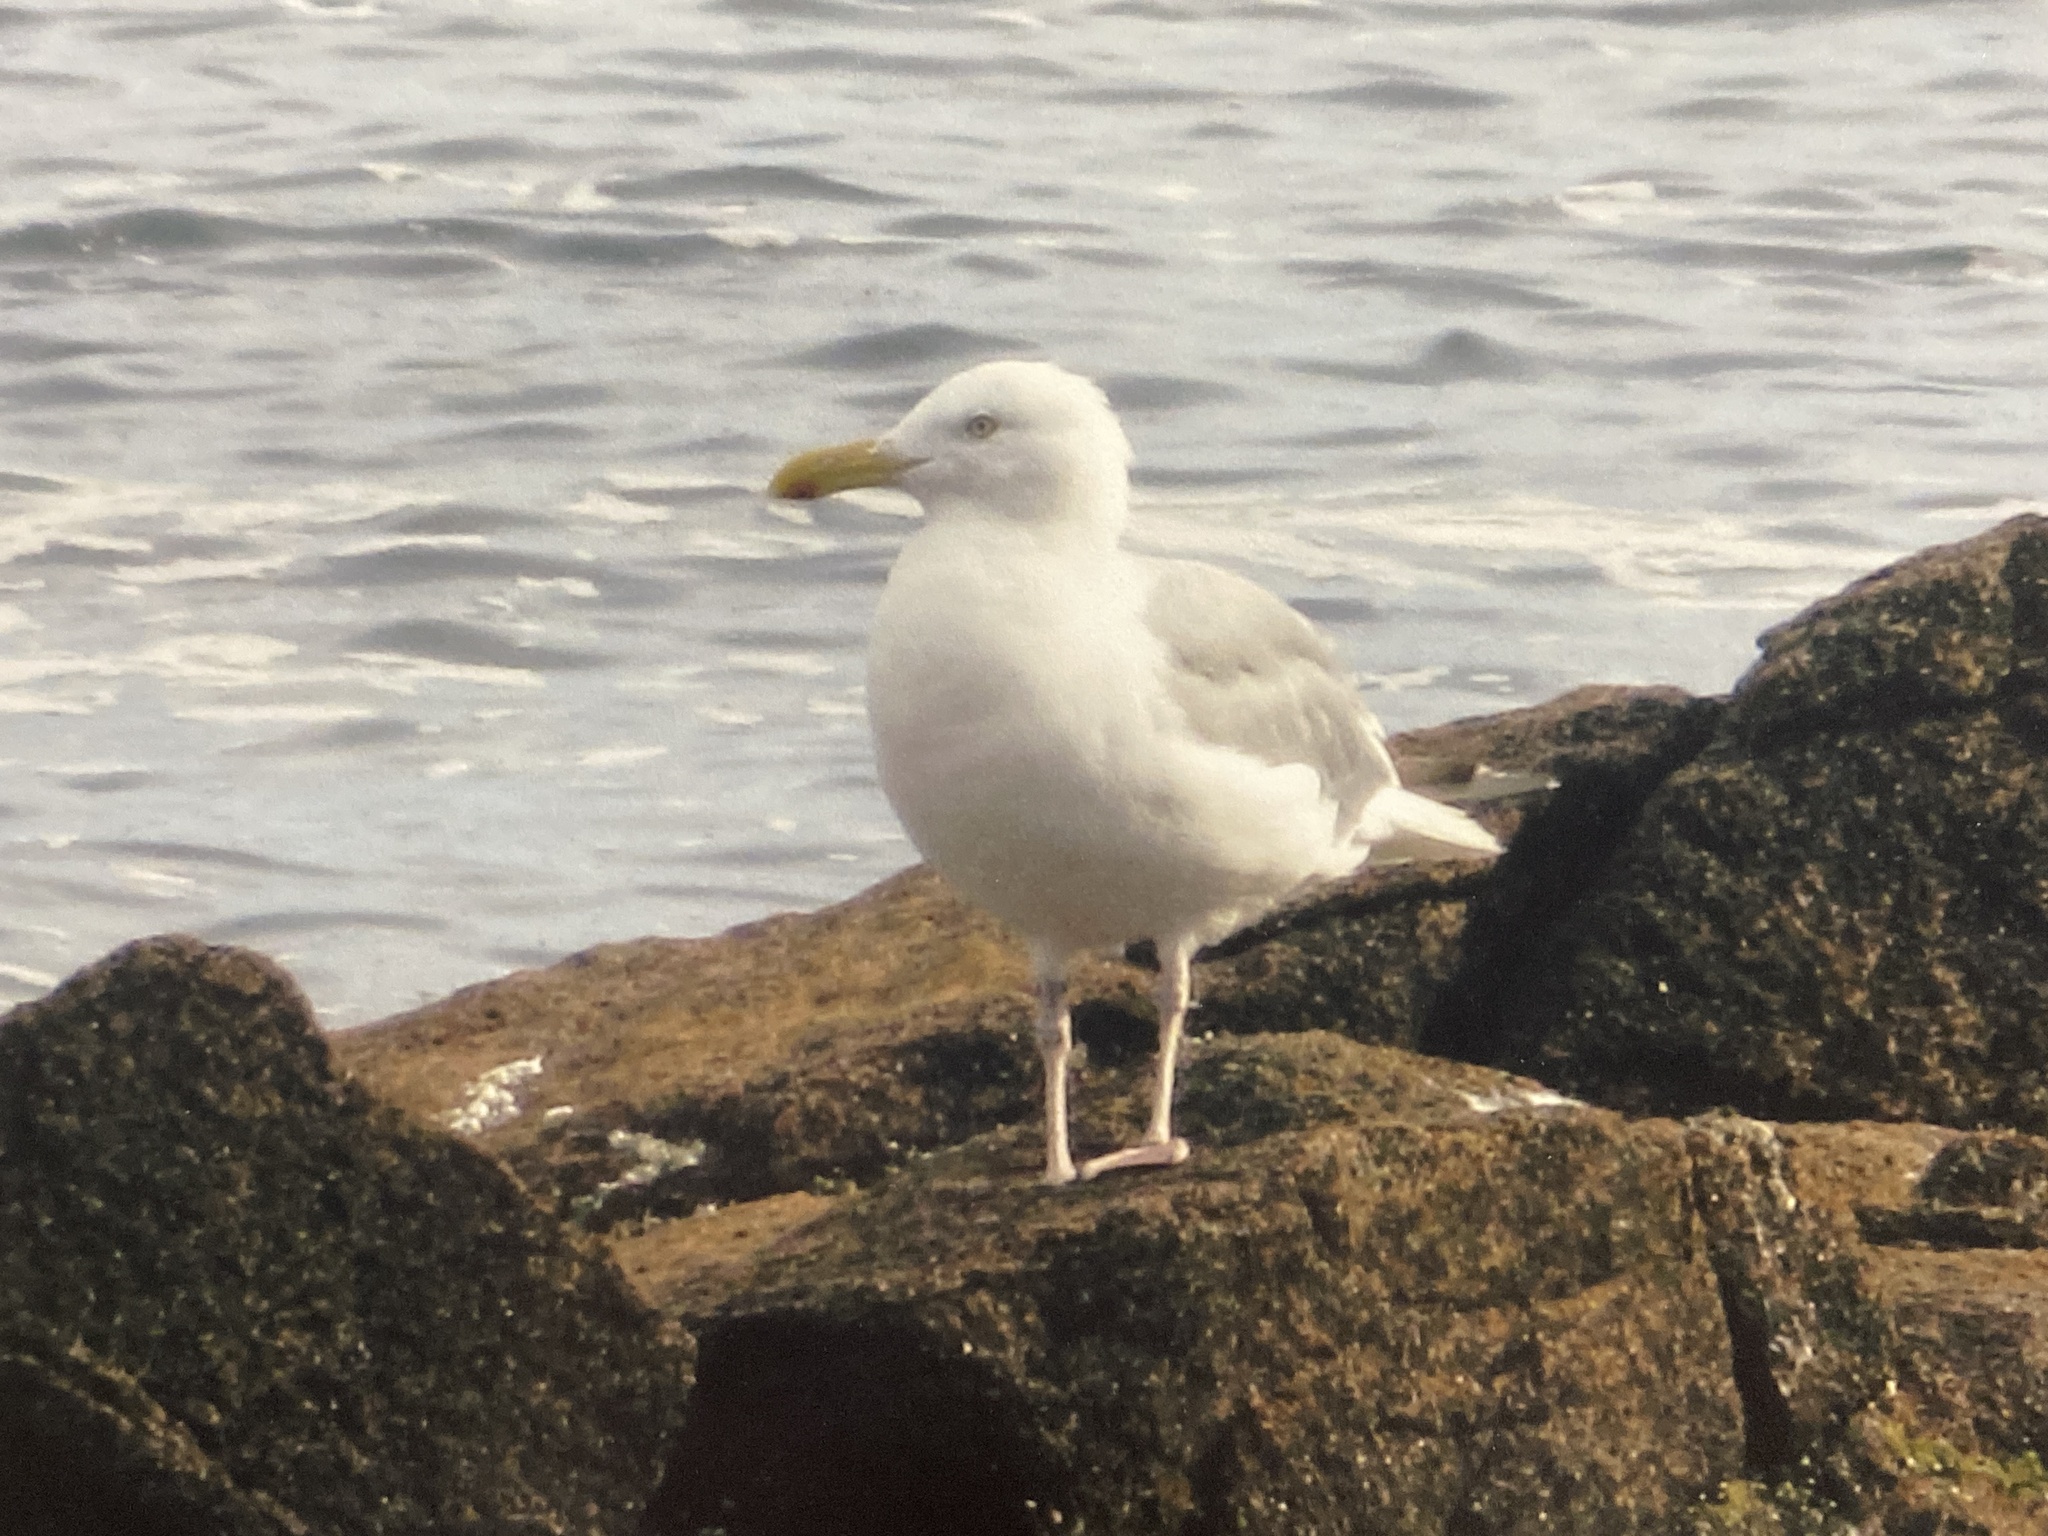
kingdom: Animalia
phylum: Chordata
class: Aves
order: Charadriiformes
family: Laridae
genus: Larus
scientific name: Larus smithsonianus
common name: American herring gull
